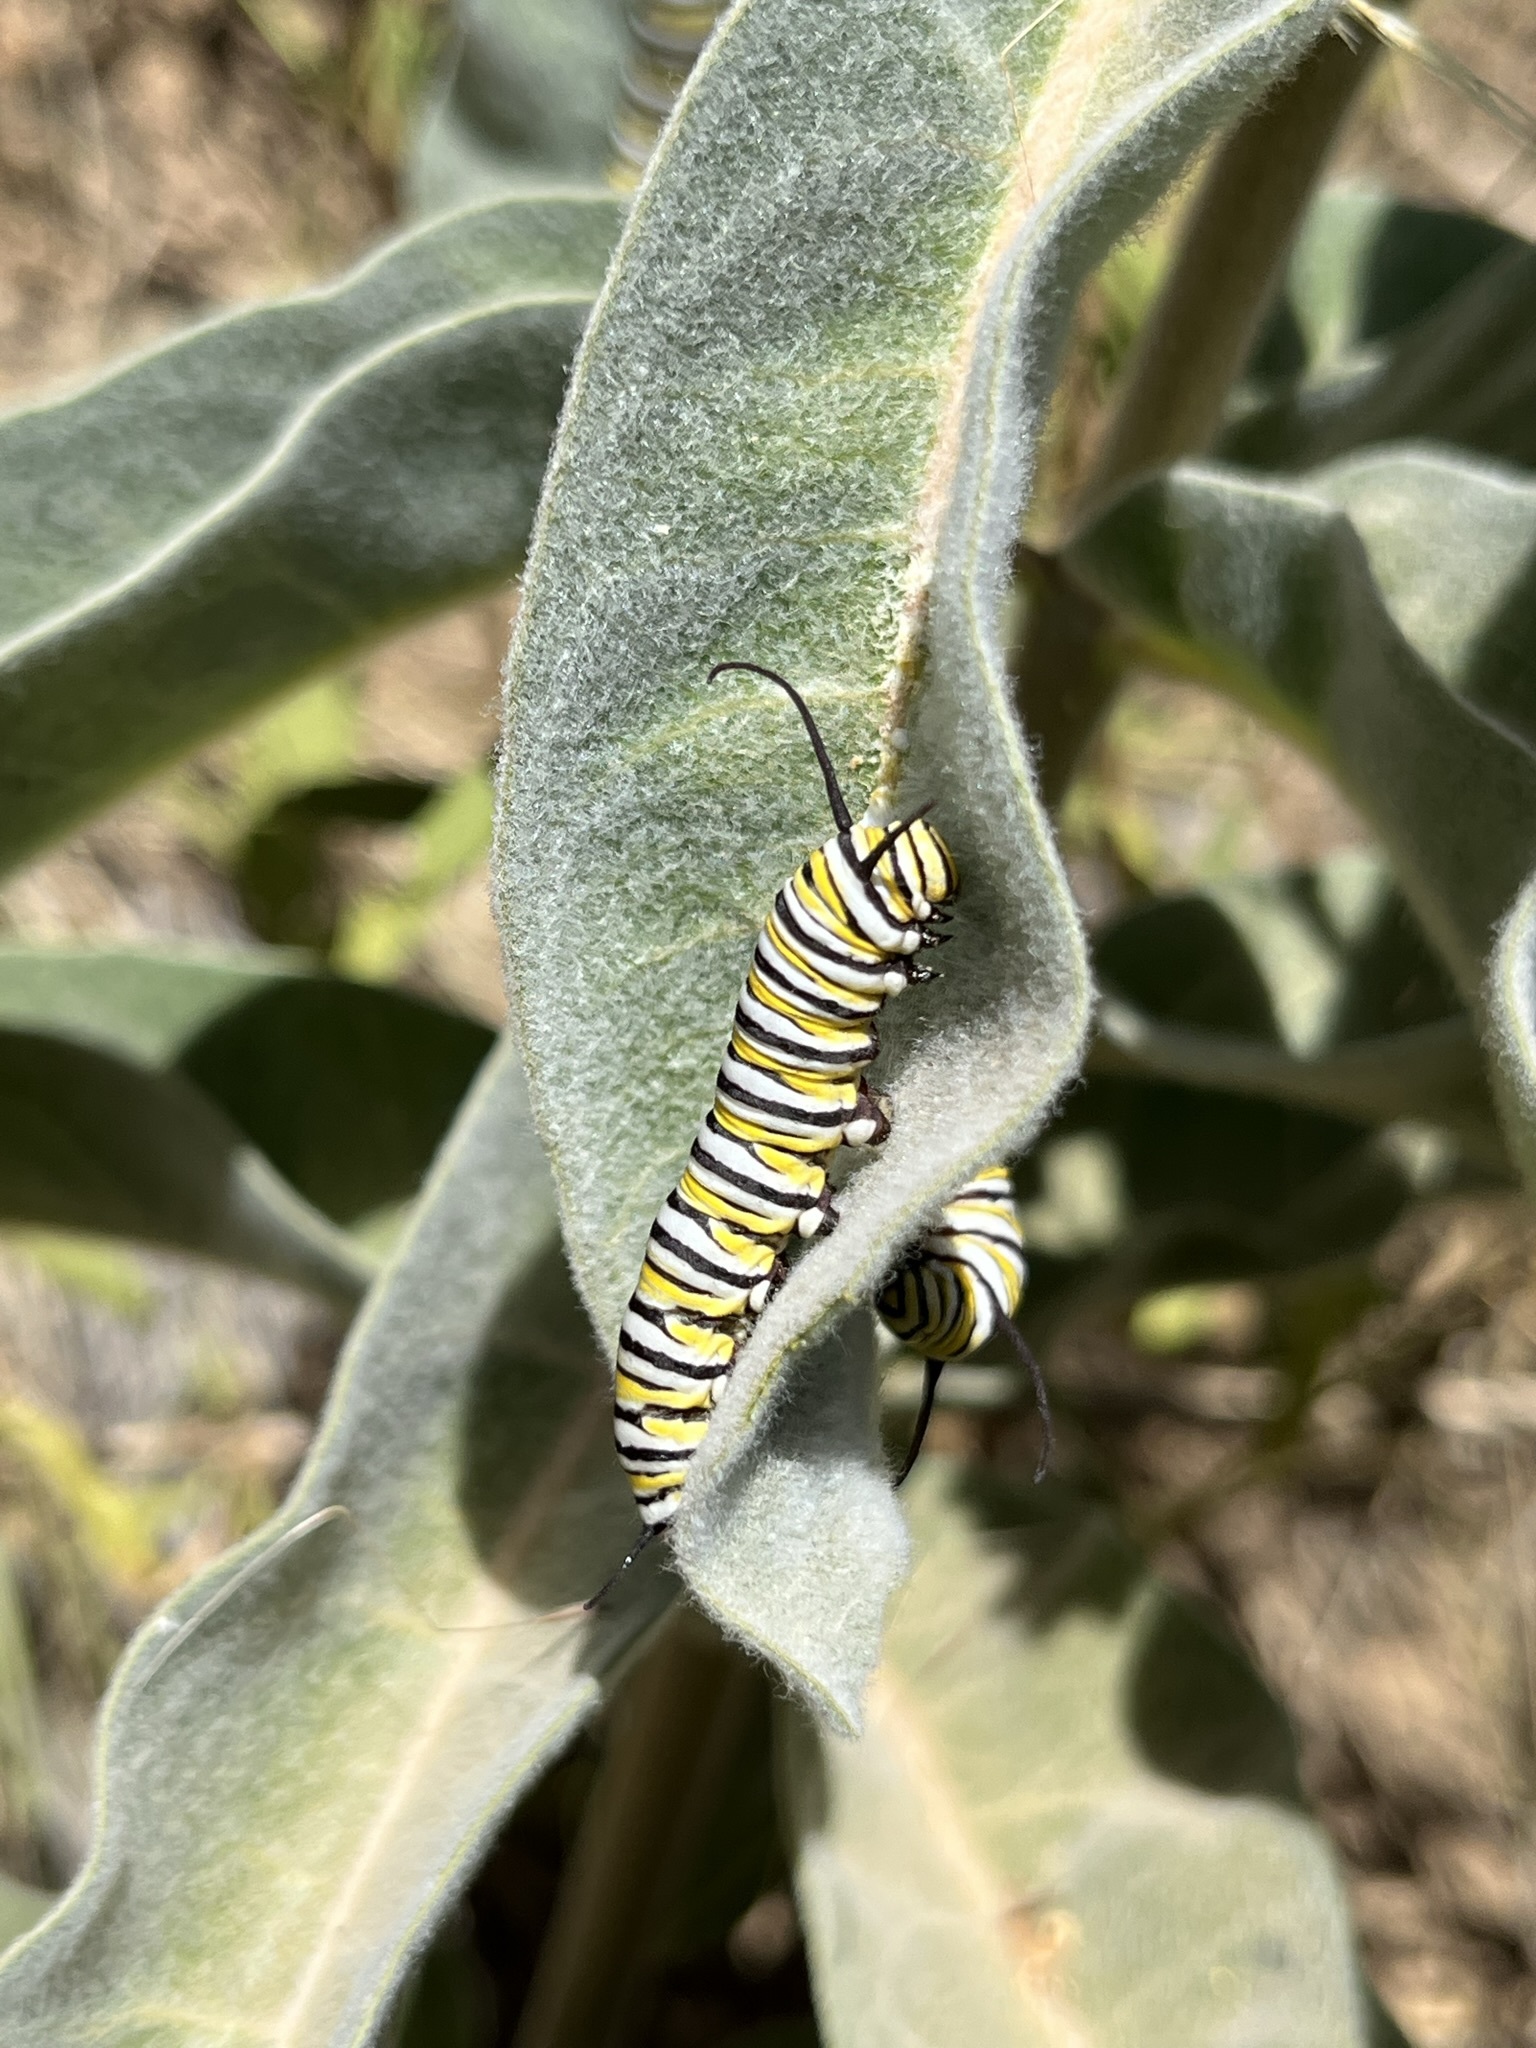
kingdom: Animalia
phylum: Arthropoda
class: Insecta
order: Lepidoptera
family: Nymphalidae
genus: Danaus
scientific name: Danaus plexippus
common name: Monarch
